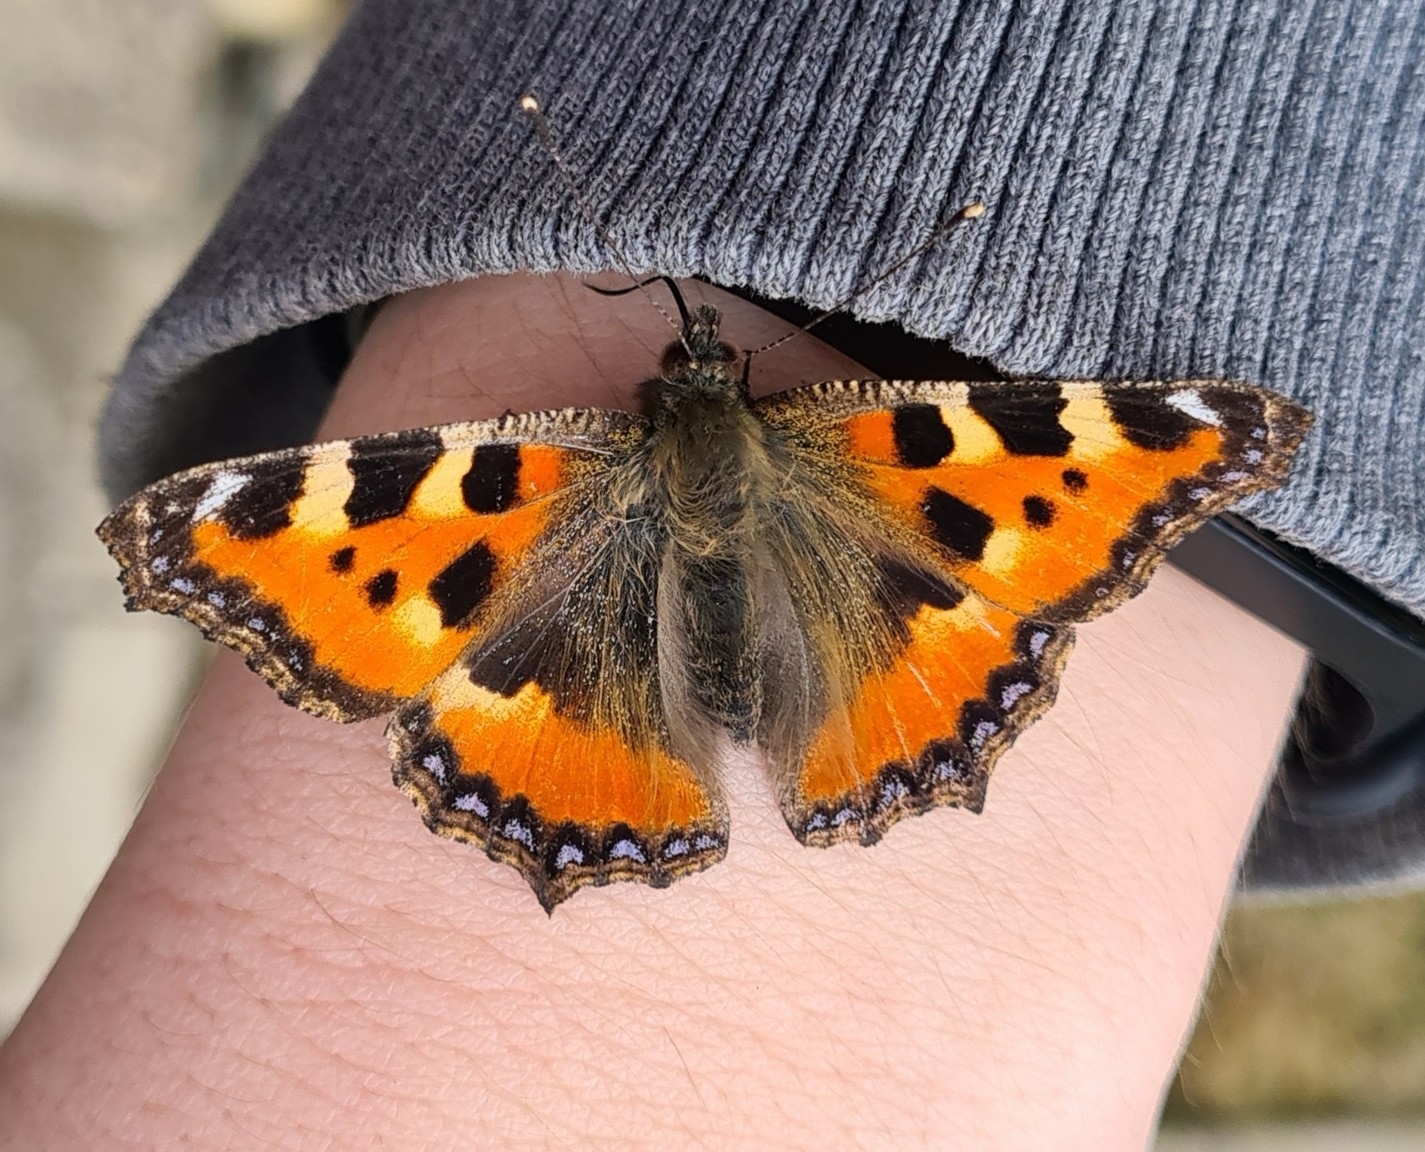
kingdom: Animalia
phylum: Arthropoda
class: Insecta
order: Lepidoptera
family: Nymphalidae
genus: Aglais
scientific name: Aglais urticae
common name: Small tortoiseshell
